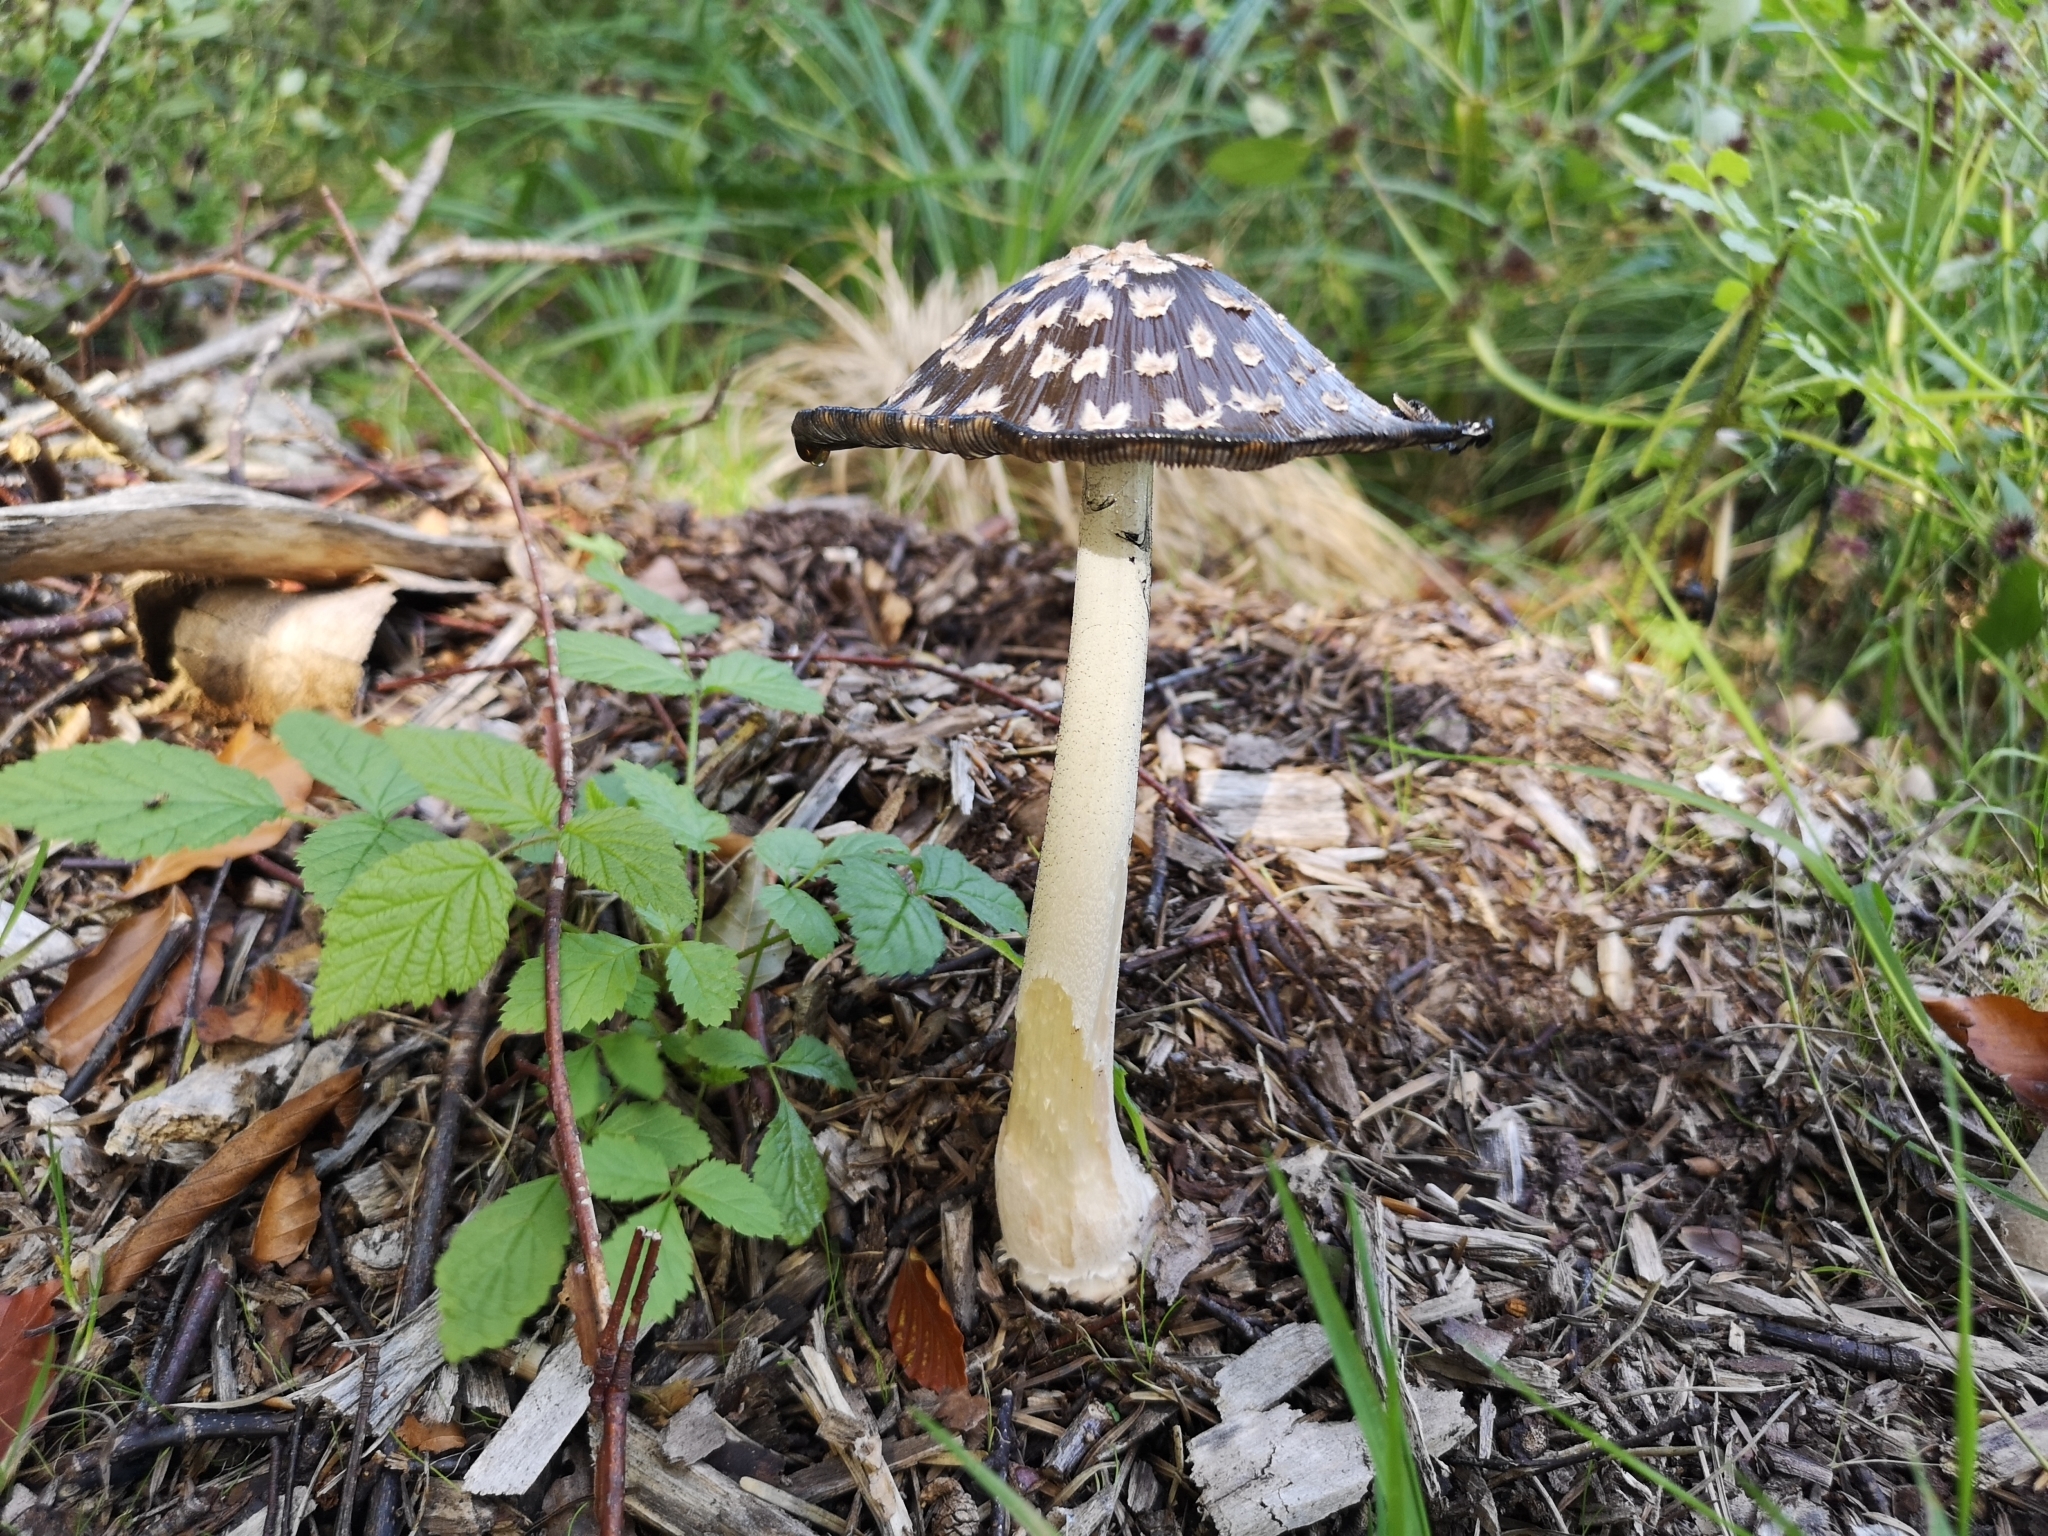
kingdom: Fungi
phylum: Basidiomycota
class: Agaricomycetes
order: Agaricales
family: Psathyrellaceae
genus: Coprinopsis
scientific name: Coprinopsis picacea
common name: Magpie inkcap
